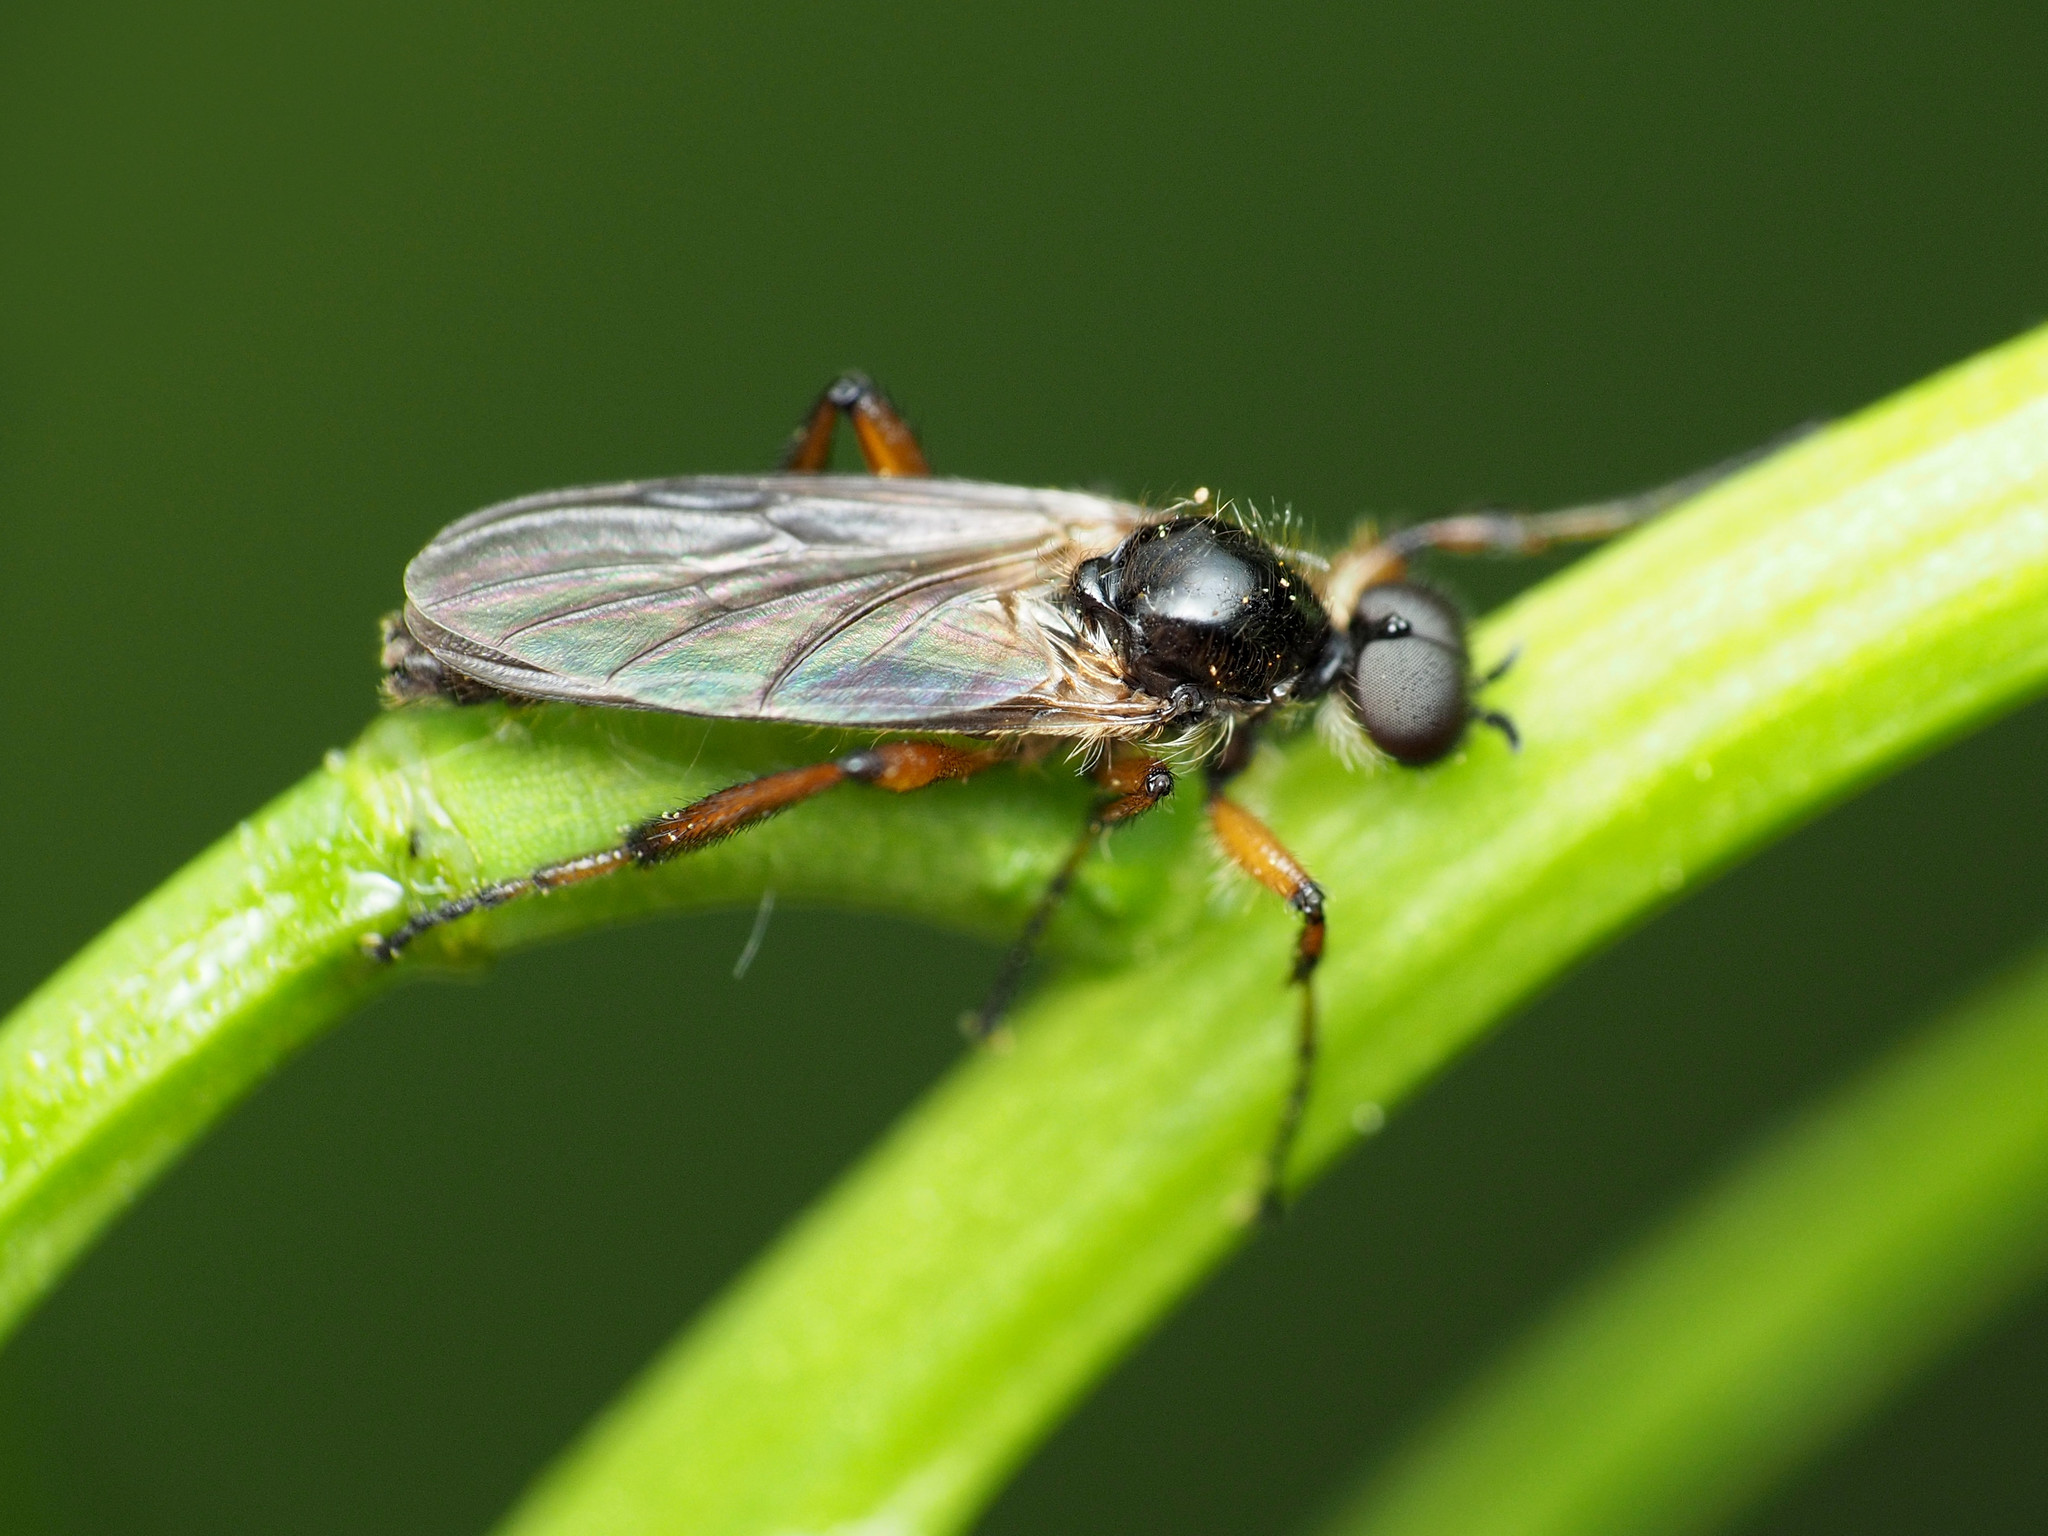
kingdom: Animalia
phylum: Arthropoda
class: Insecta
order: Diptera
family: Bibionidae
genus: Bibio
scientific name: Bibio
